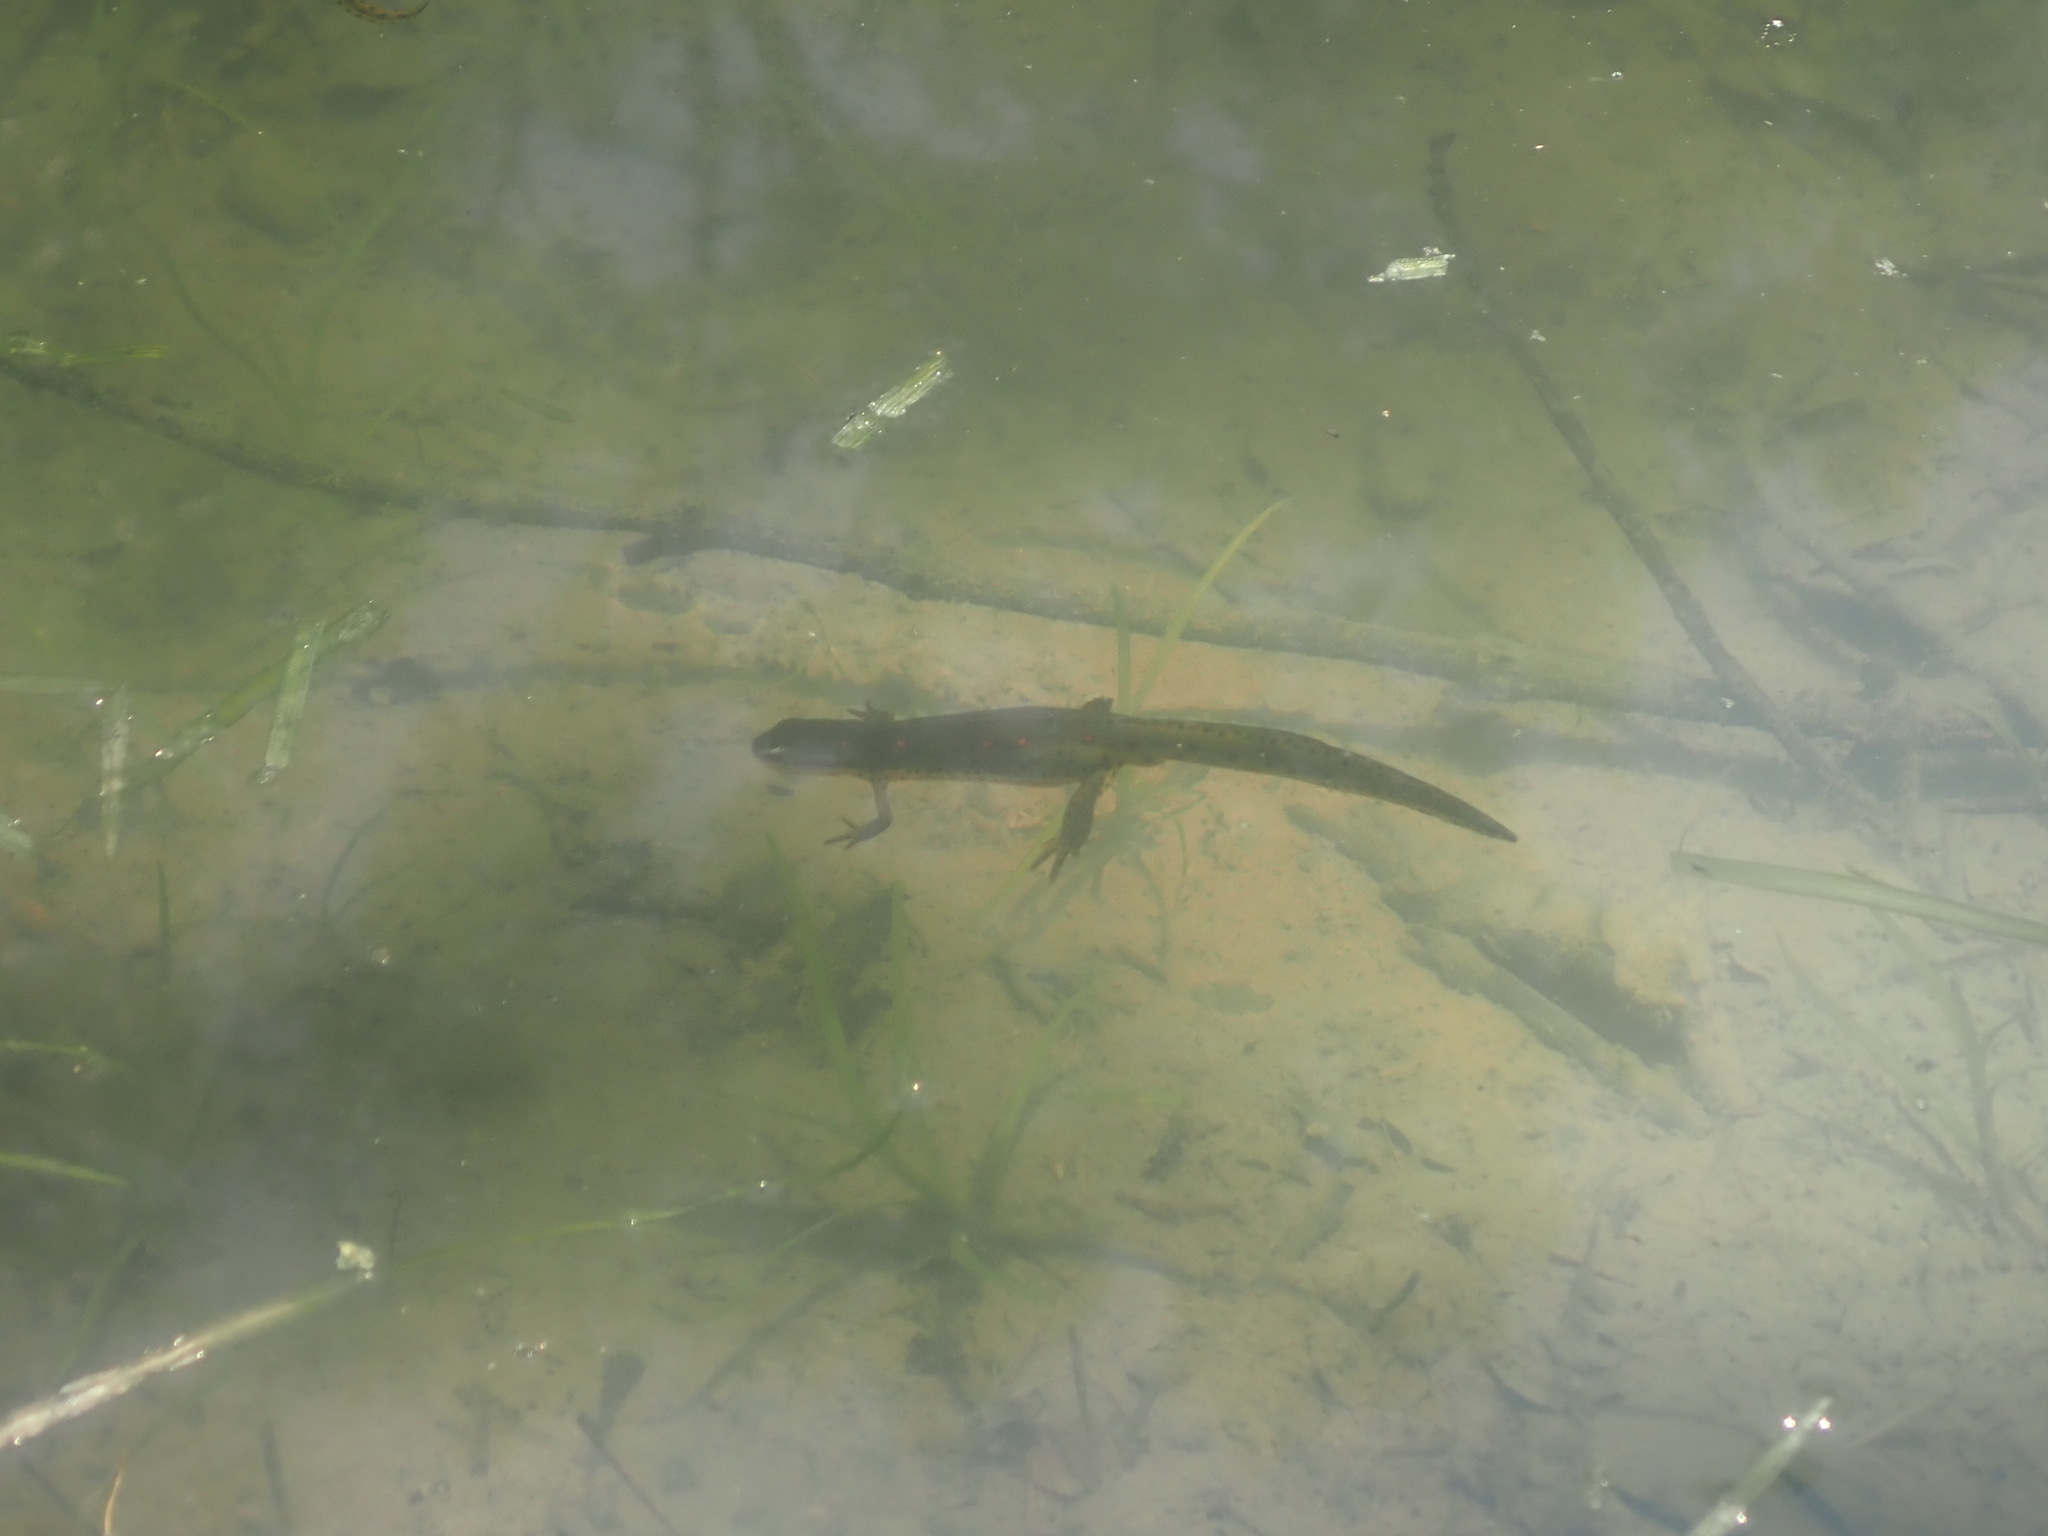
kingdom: Animalia
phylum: Chordata
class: Amphibia
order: Caudata
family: Salamandridae
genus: Notophthalmus
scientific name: Notophthalmus viridescens
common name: Eastern newt
